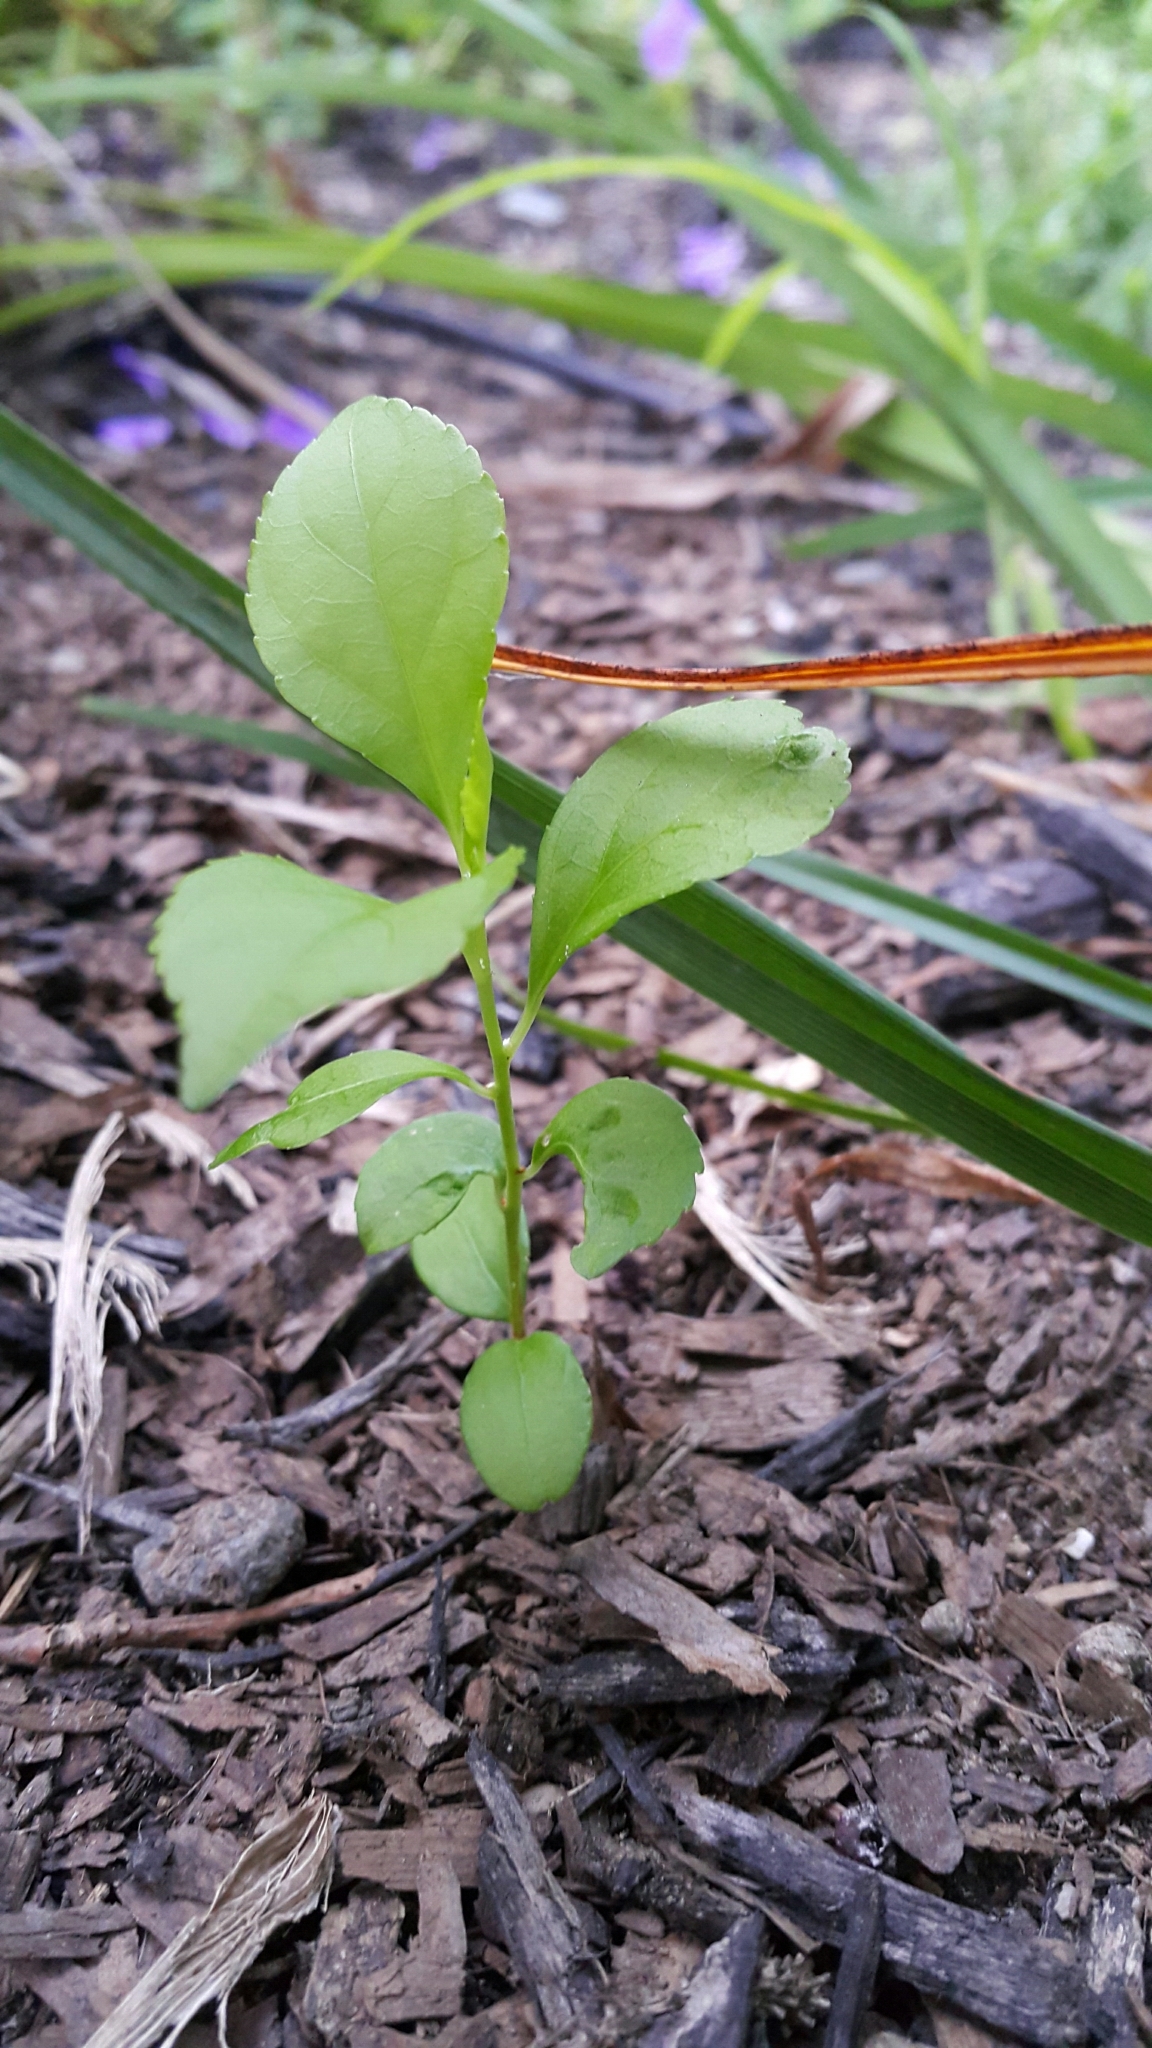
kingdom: Plantae
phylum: Tracheophyta
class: Magnoliopsida
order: Celastrales
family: Celastraceae
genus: Celastrus
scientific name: Celastrus orbiculatus
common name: Oriental bittersweet
